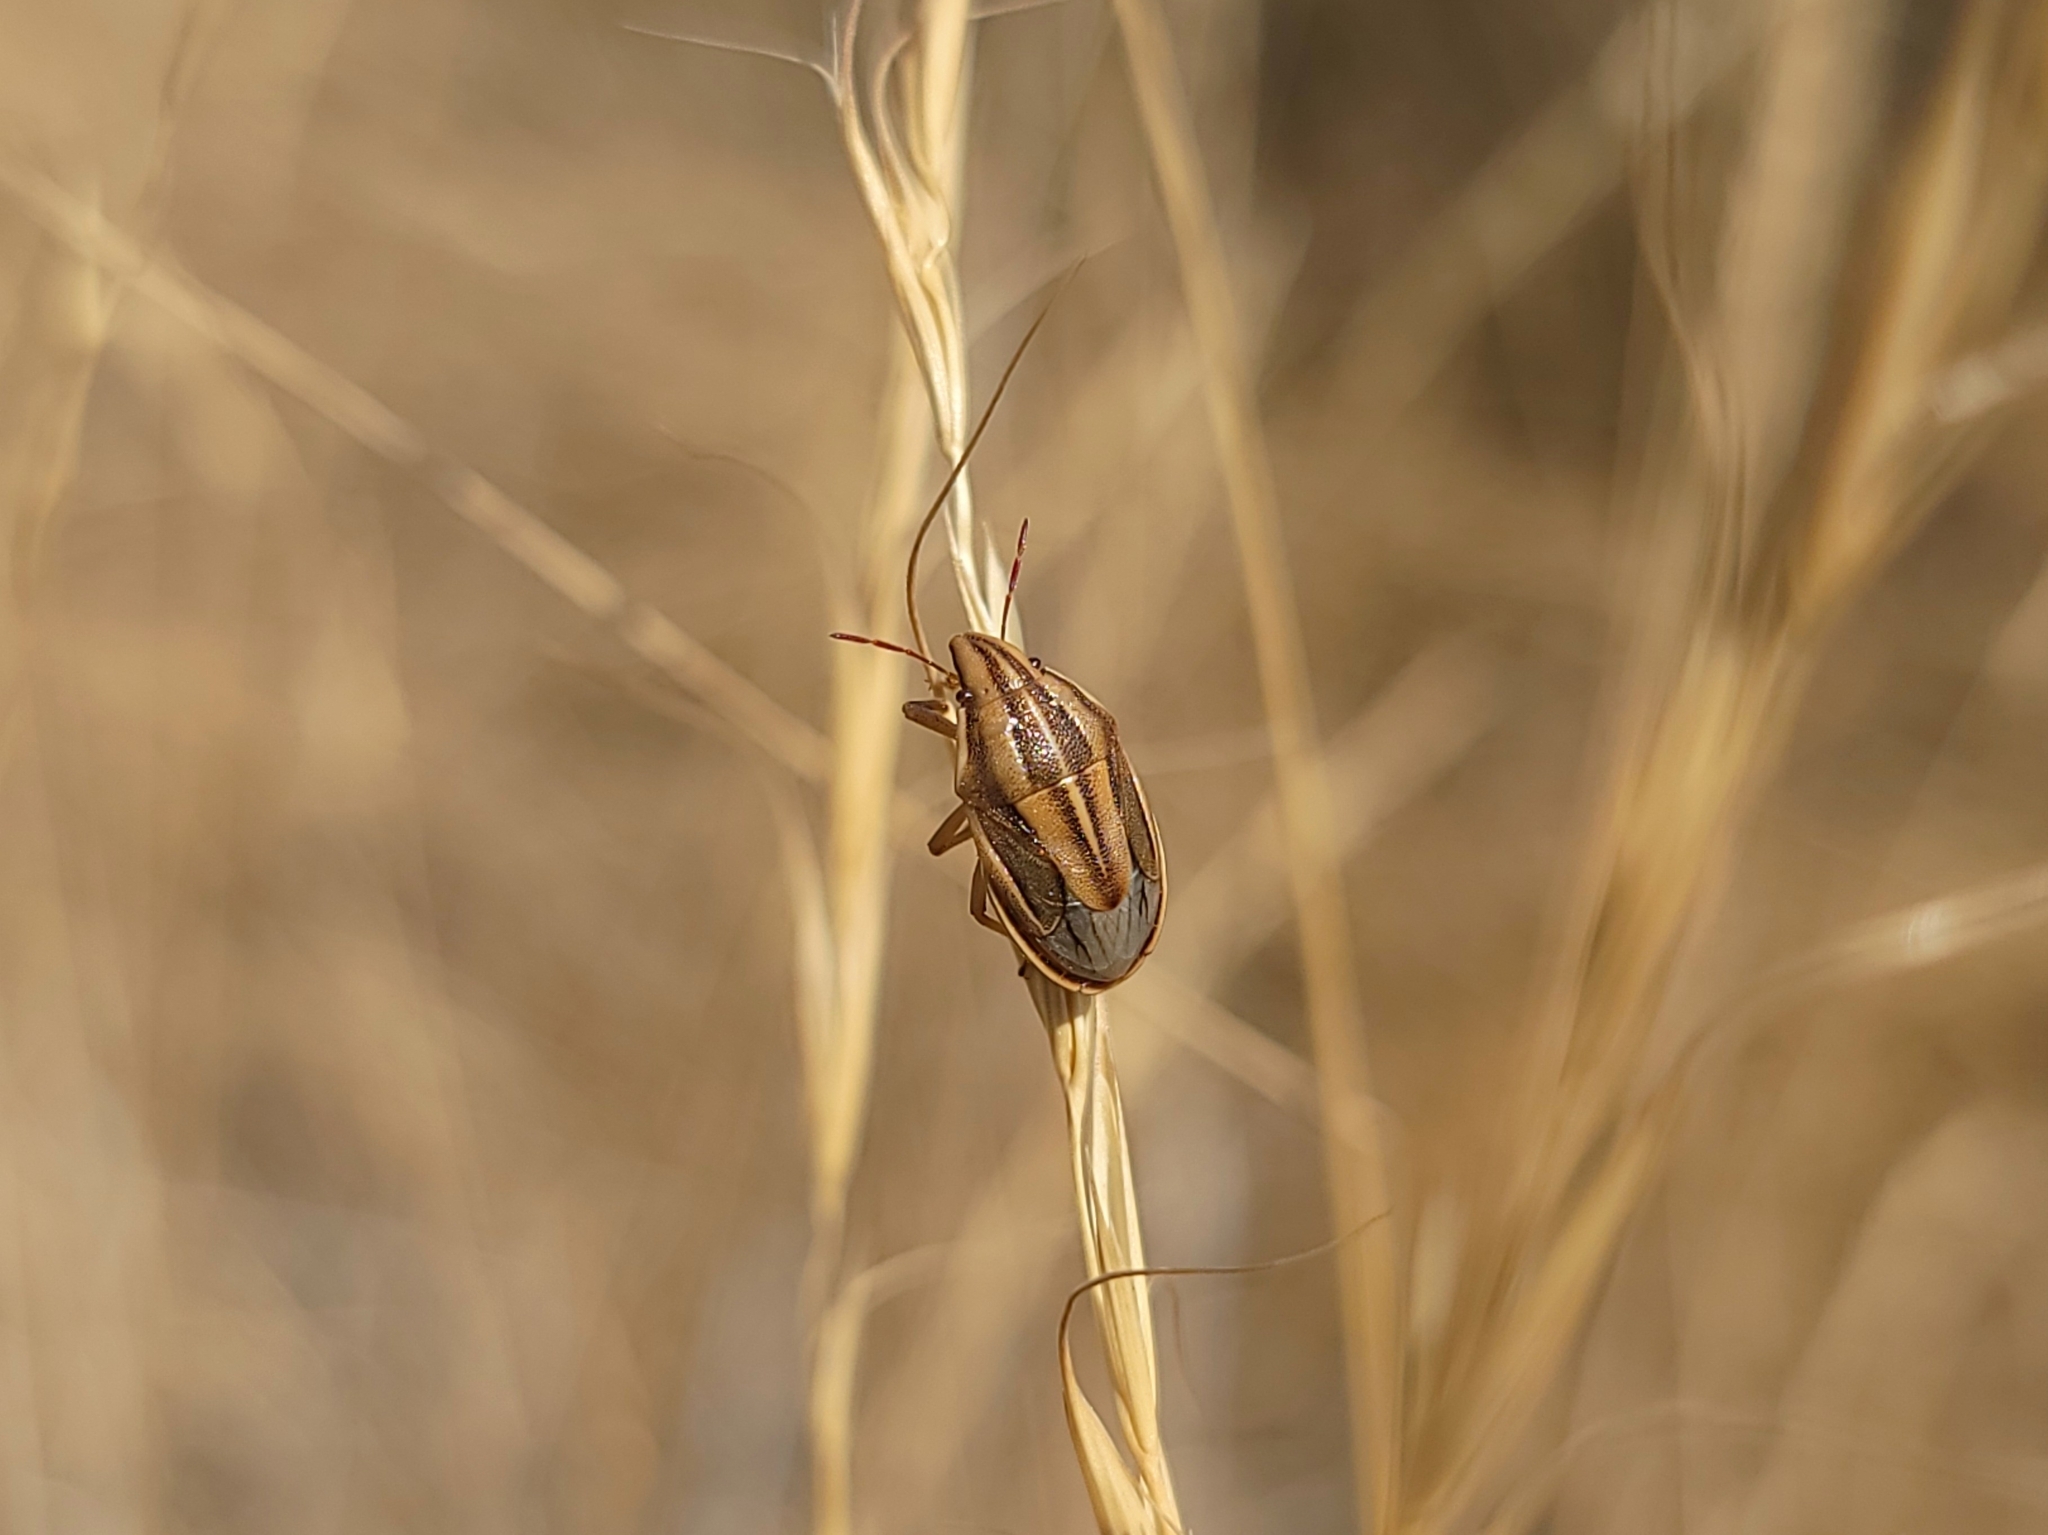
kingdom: Animalia
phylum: Arthropoda
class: Insecta
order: Hemiptera
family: Pentatomidae
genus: Aelia
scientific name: Aelia americana
